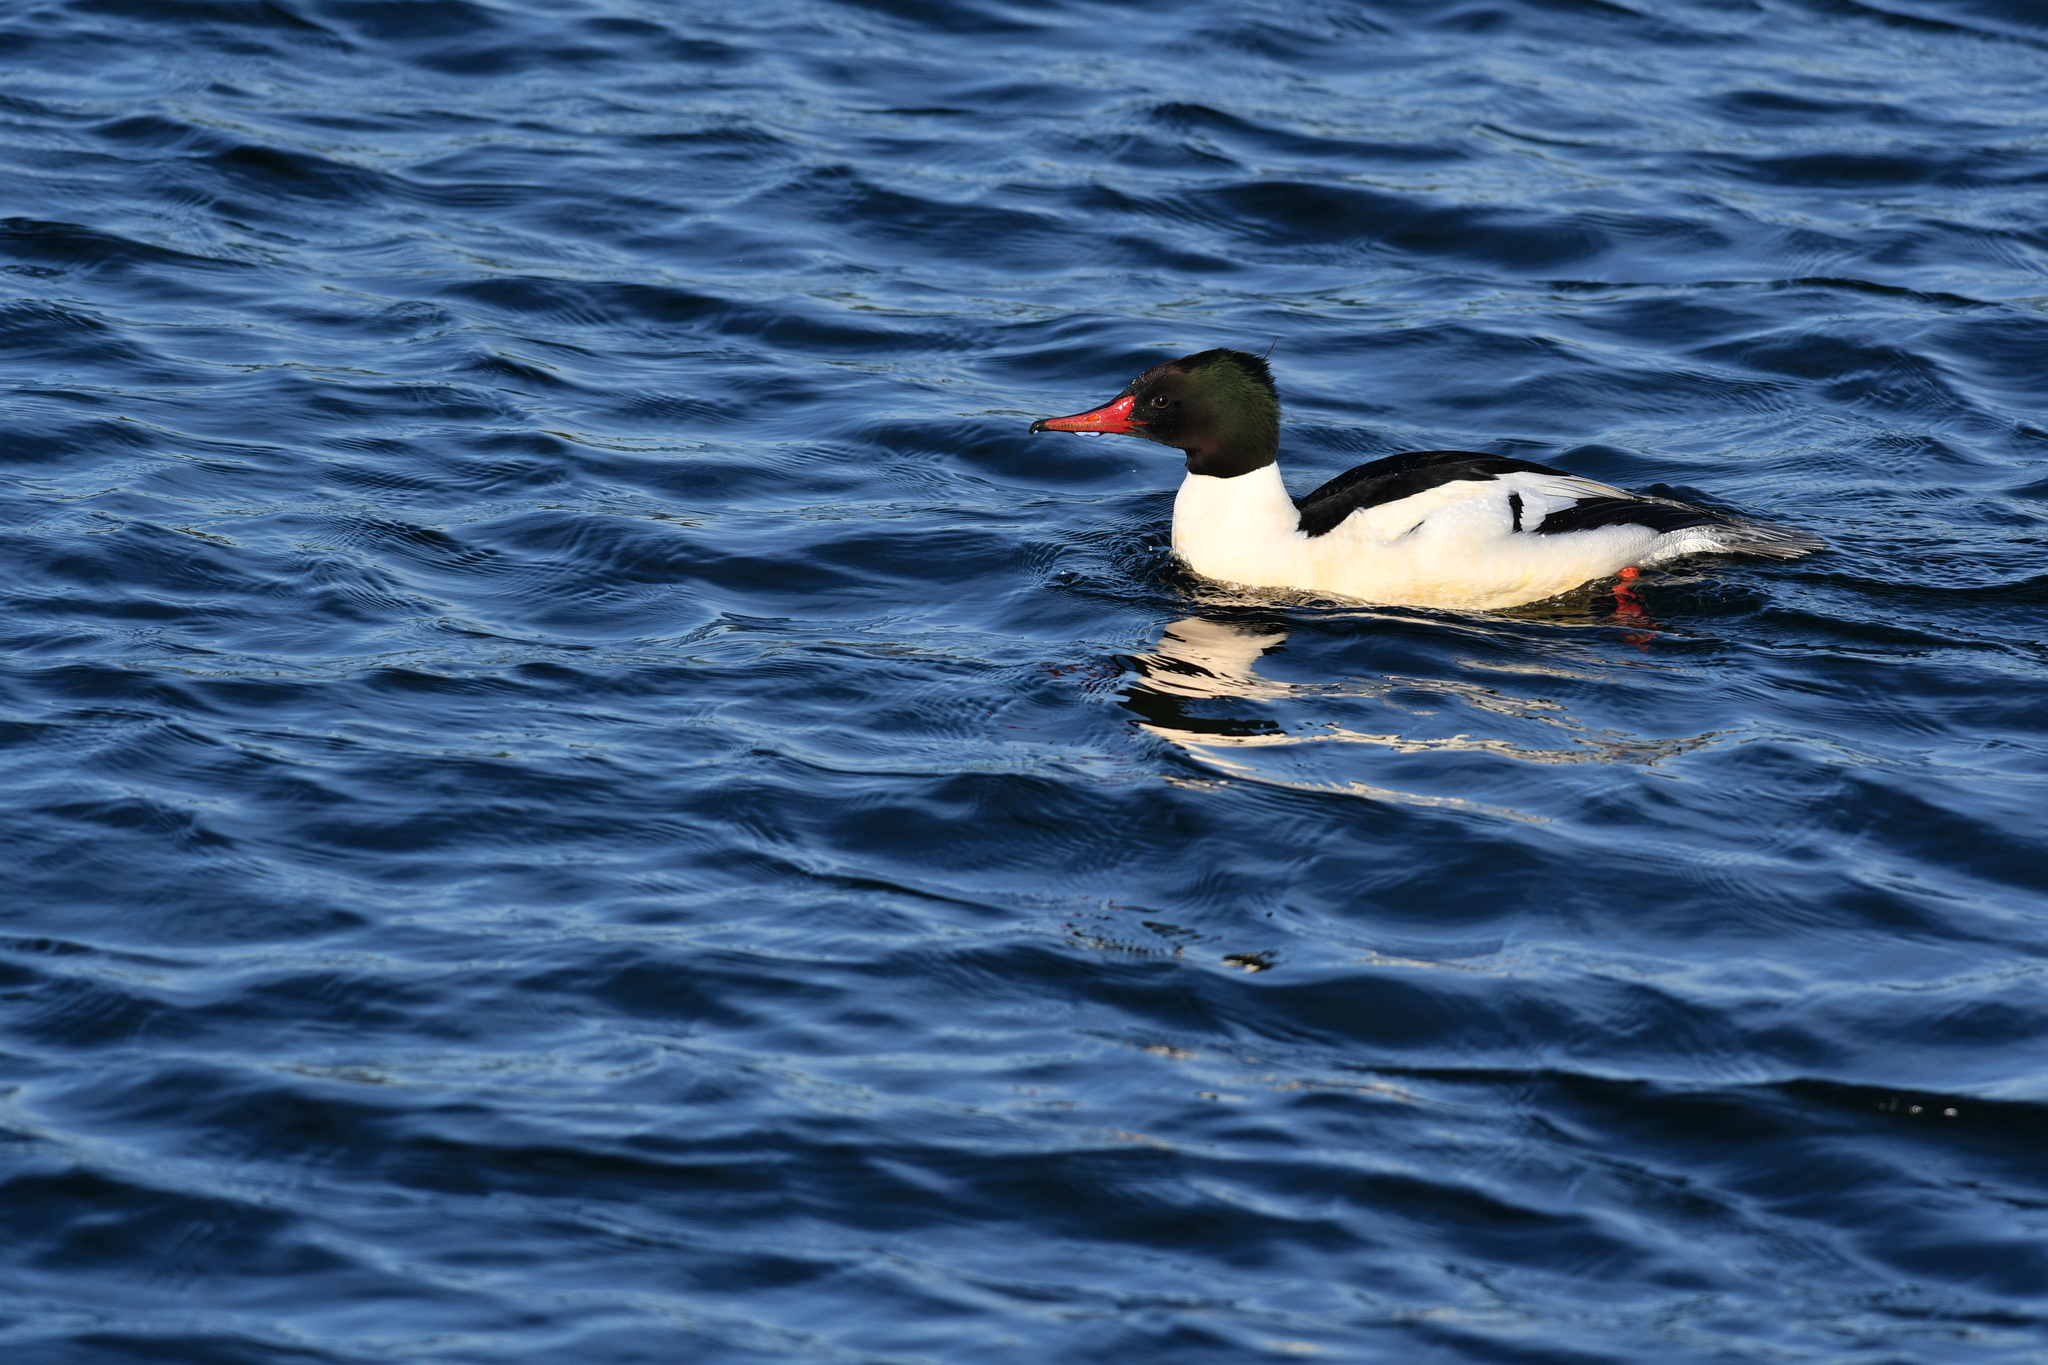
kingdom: Animalia
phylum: Chordata
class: Aves
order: Anseriformes
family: Anatidae
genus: Mergus
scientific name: Mergus merganser
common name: Common merganser
